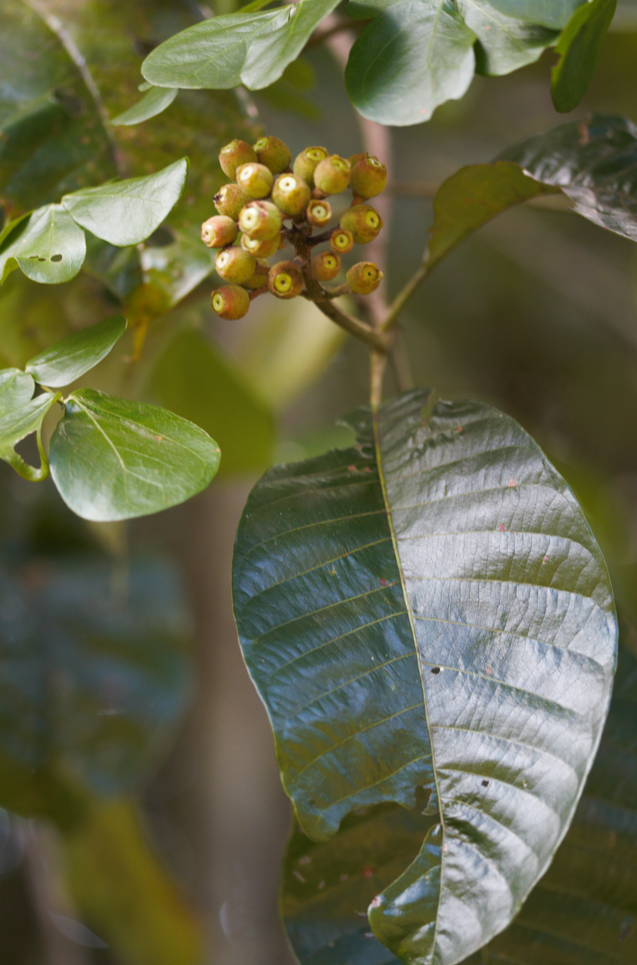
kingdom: Plantae
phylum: Tracheophyta
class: Magnoliopsida
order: Gentianales
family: Rubiaceae
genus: Isertia
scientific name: Isertia coccinea
